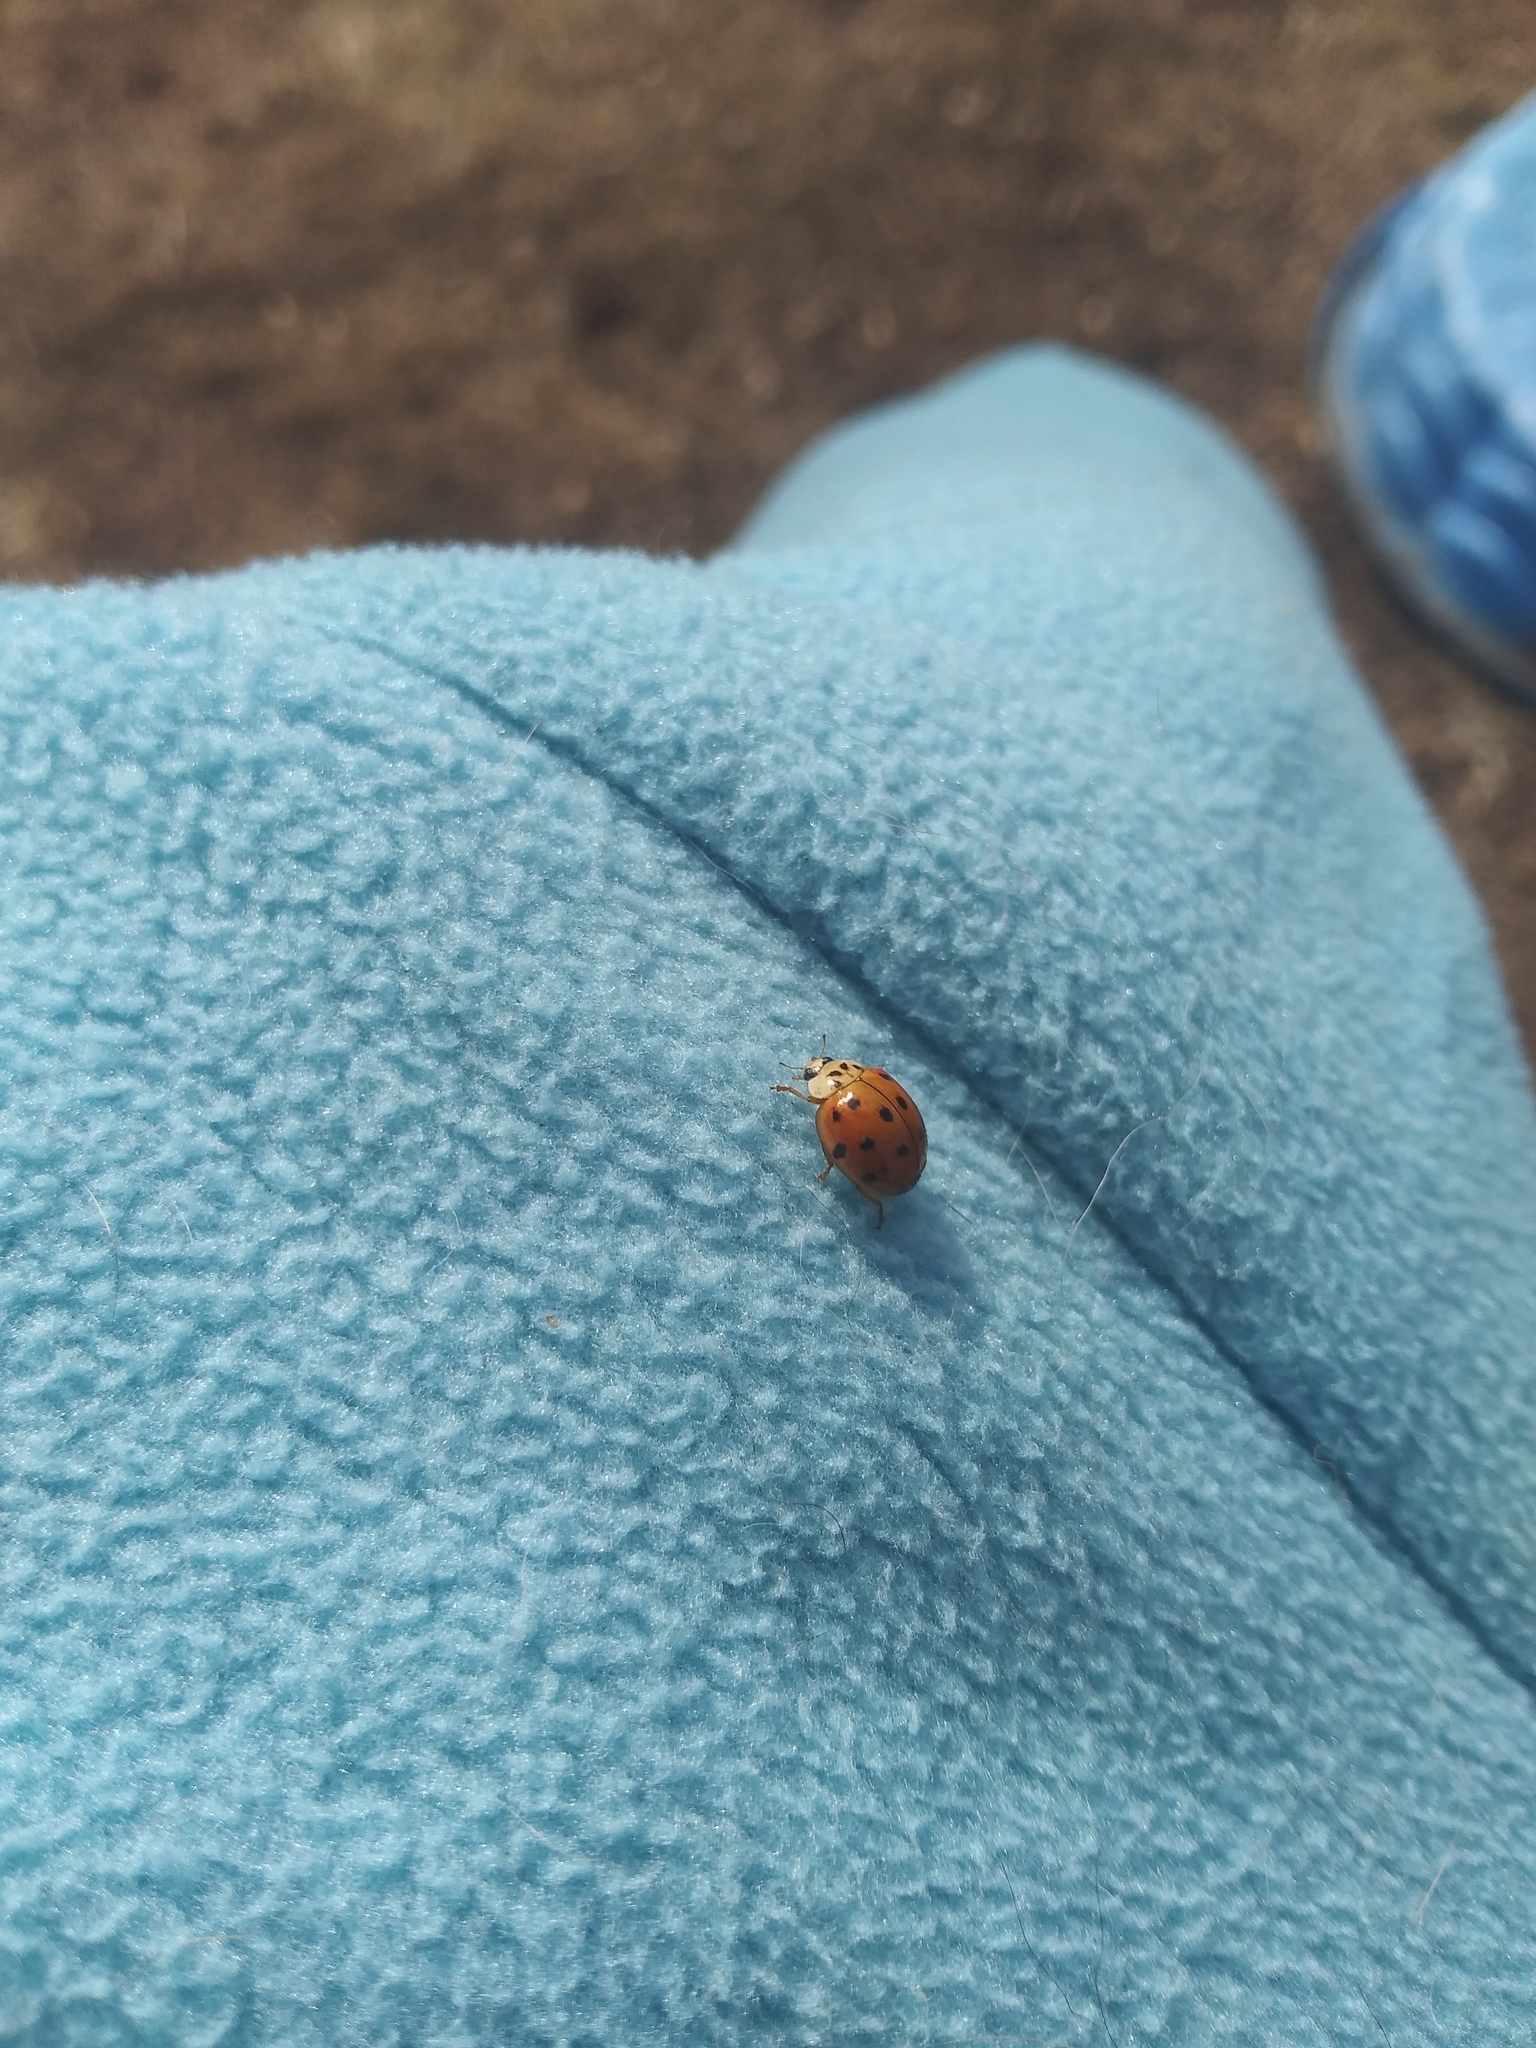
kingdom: Animalia
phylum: Arthropoda
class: Insecta
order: Coleoptera
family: Coccinellidae
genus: Harmonia
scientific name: Harmonia axyridis
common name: Harlequin ladybird
